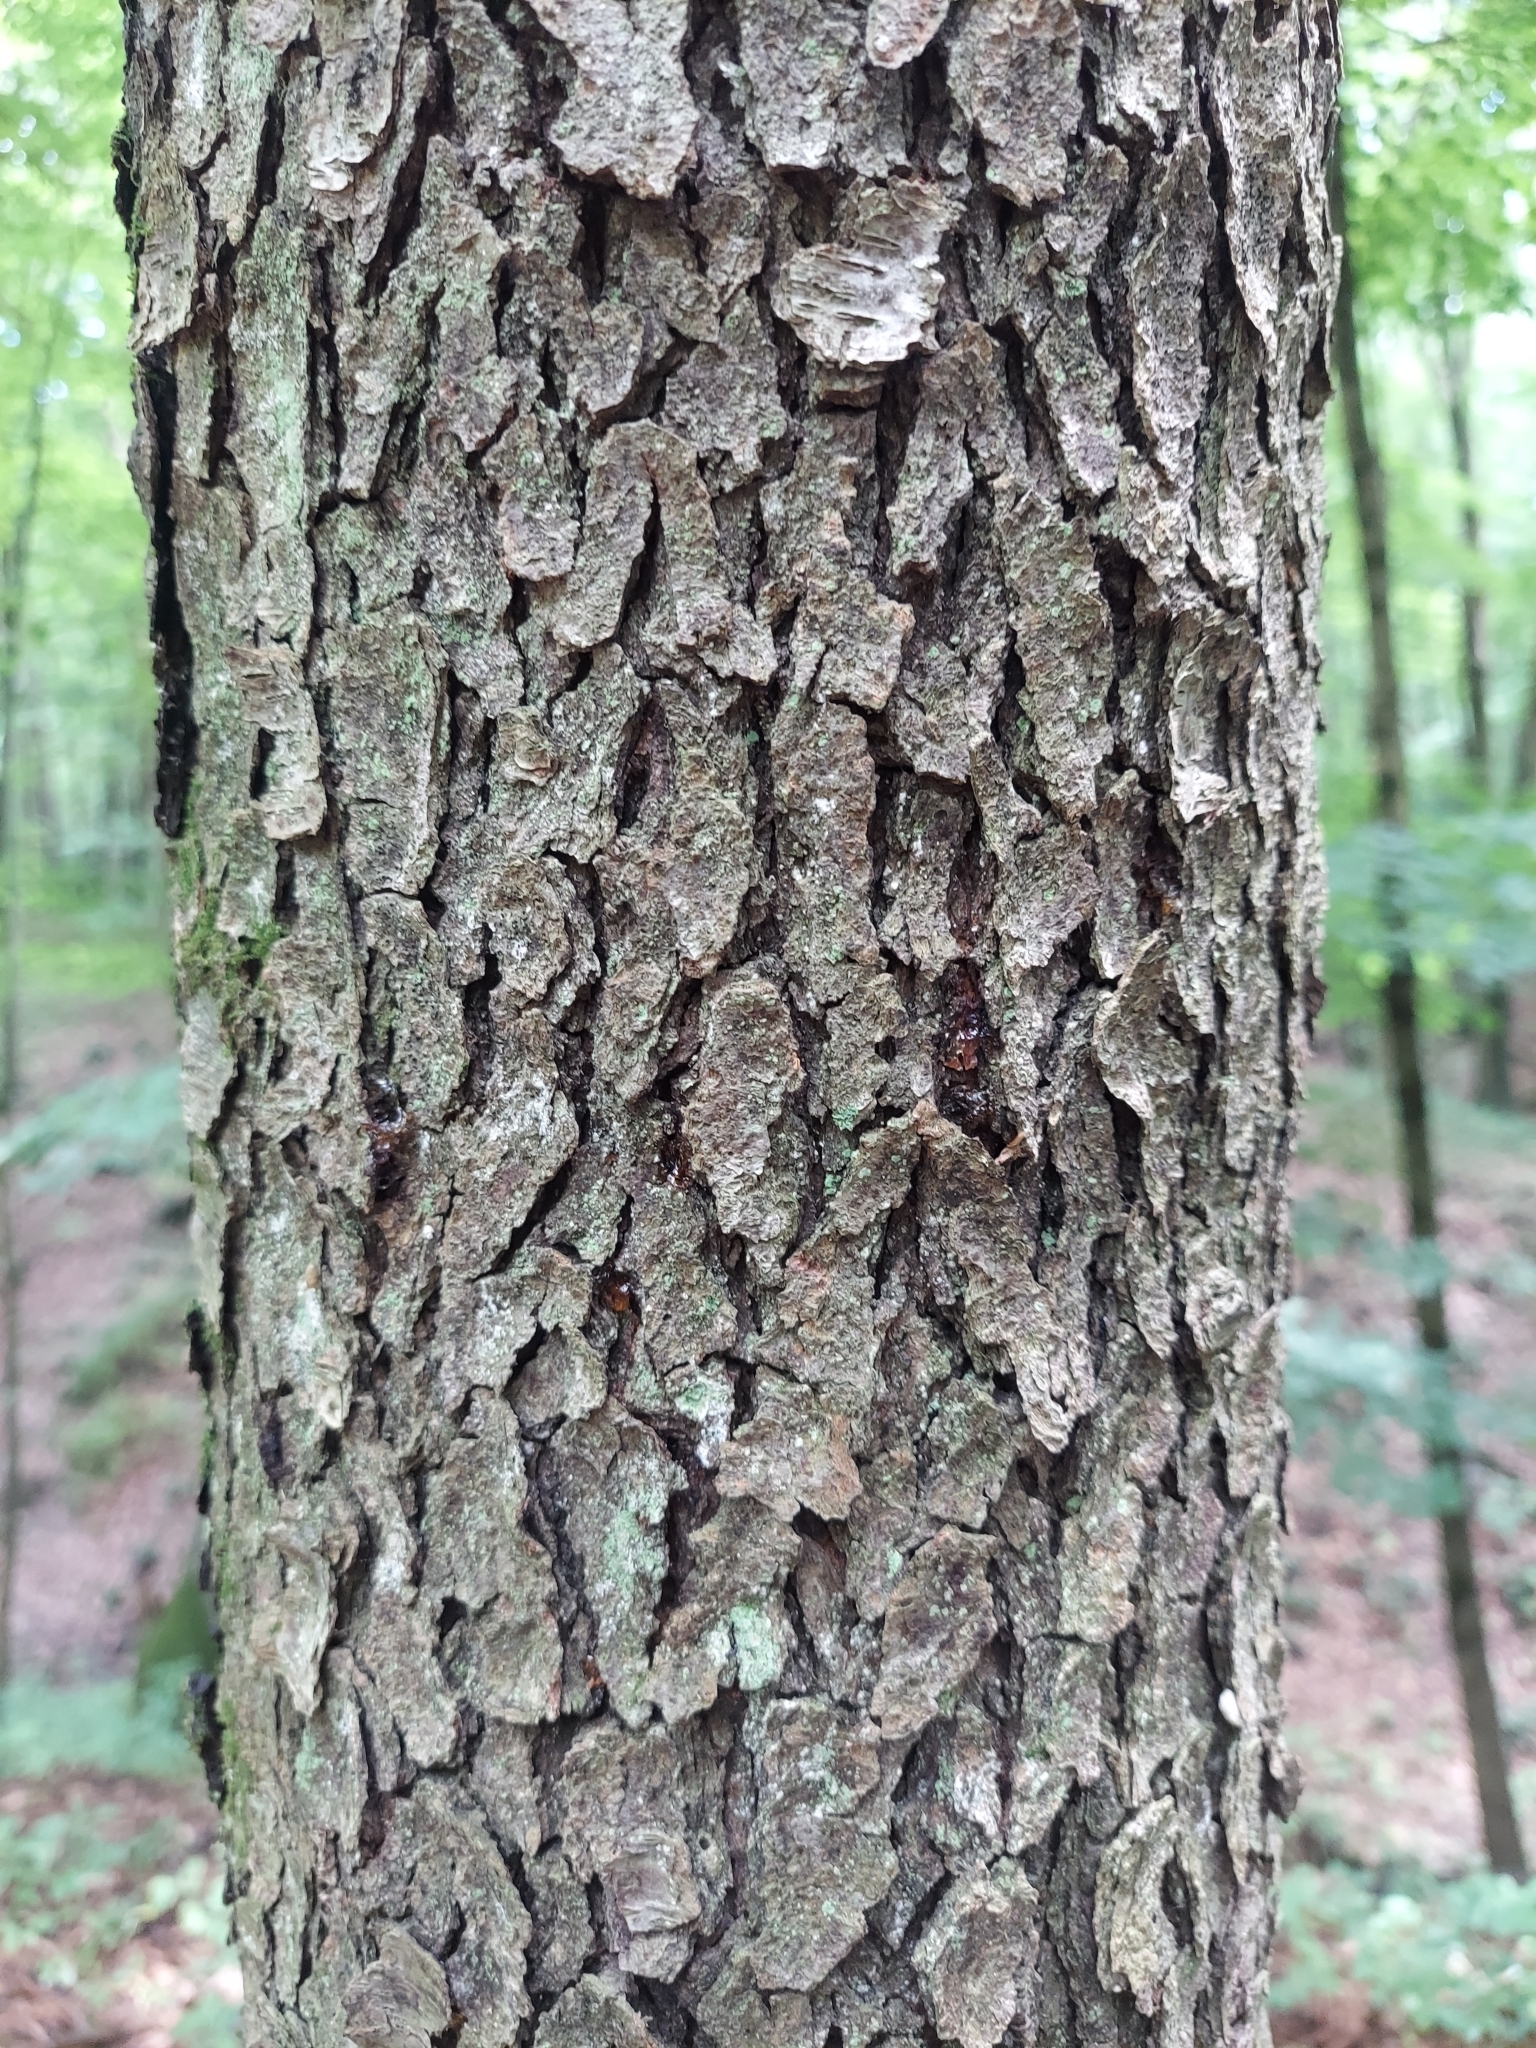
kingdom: Plantae
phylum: Tracheophyta
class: Magnoliopsida
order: Rosales
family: Rosaceae
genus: Prunus
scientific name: Prunus serotina
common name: Black cherry
